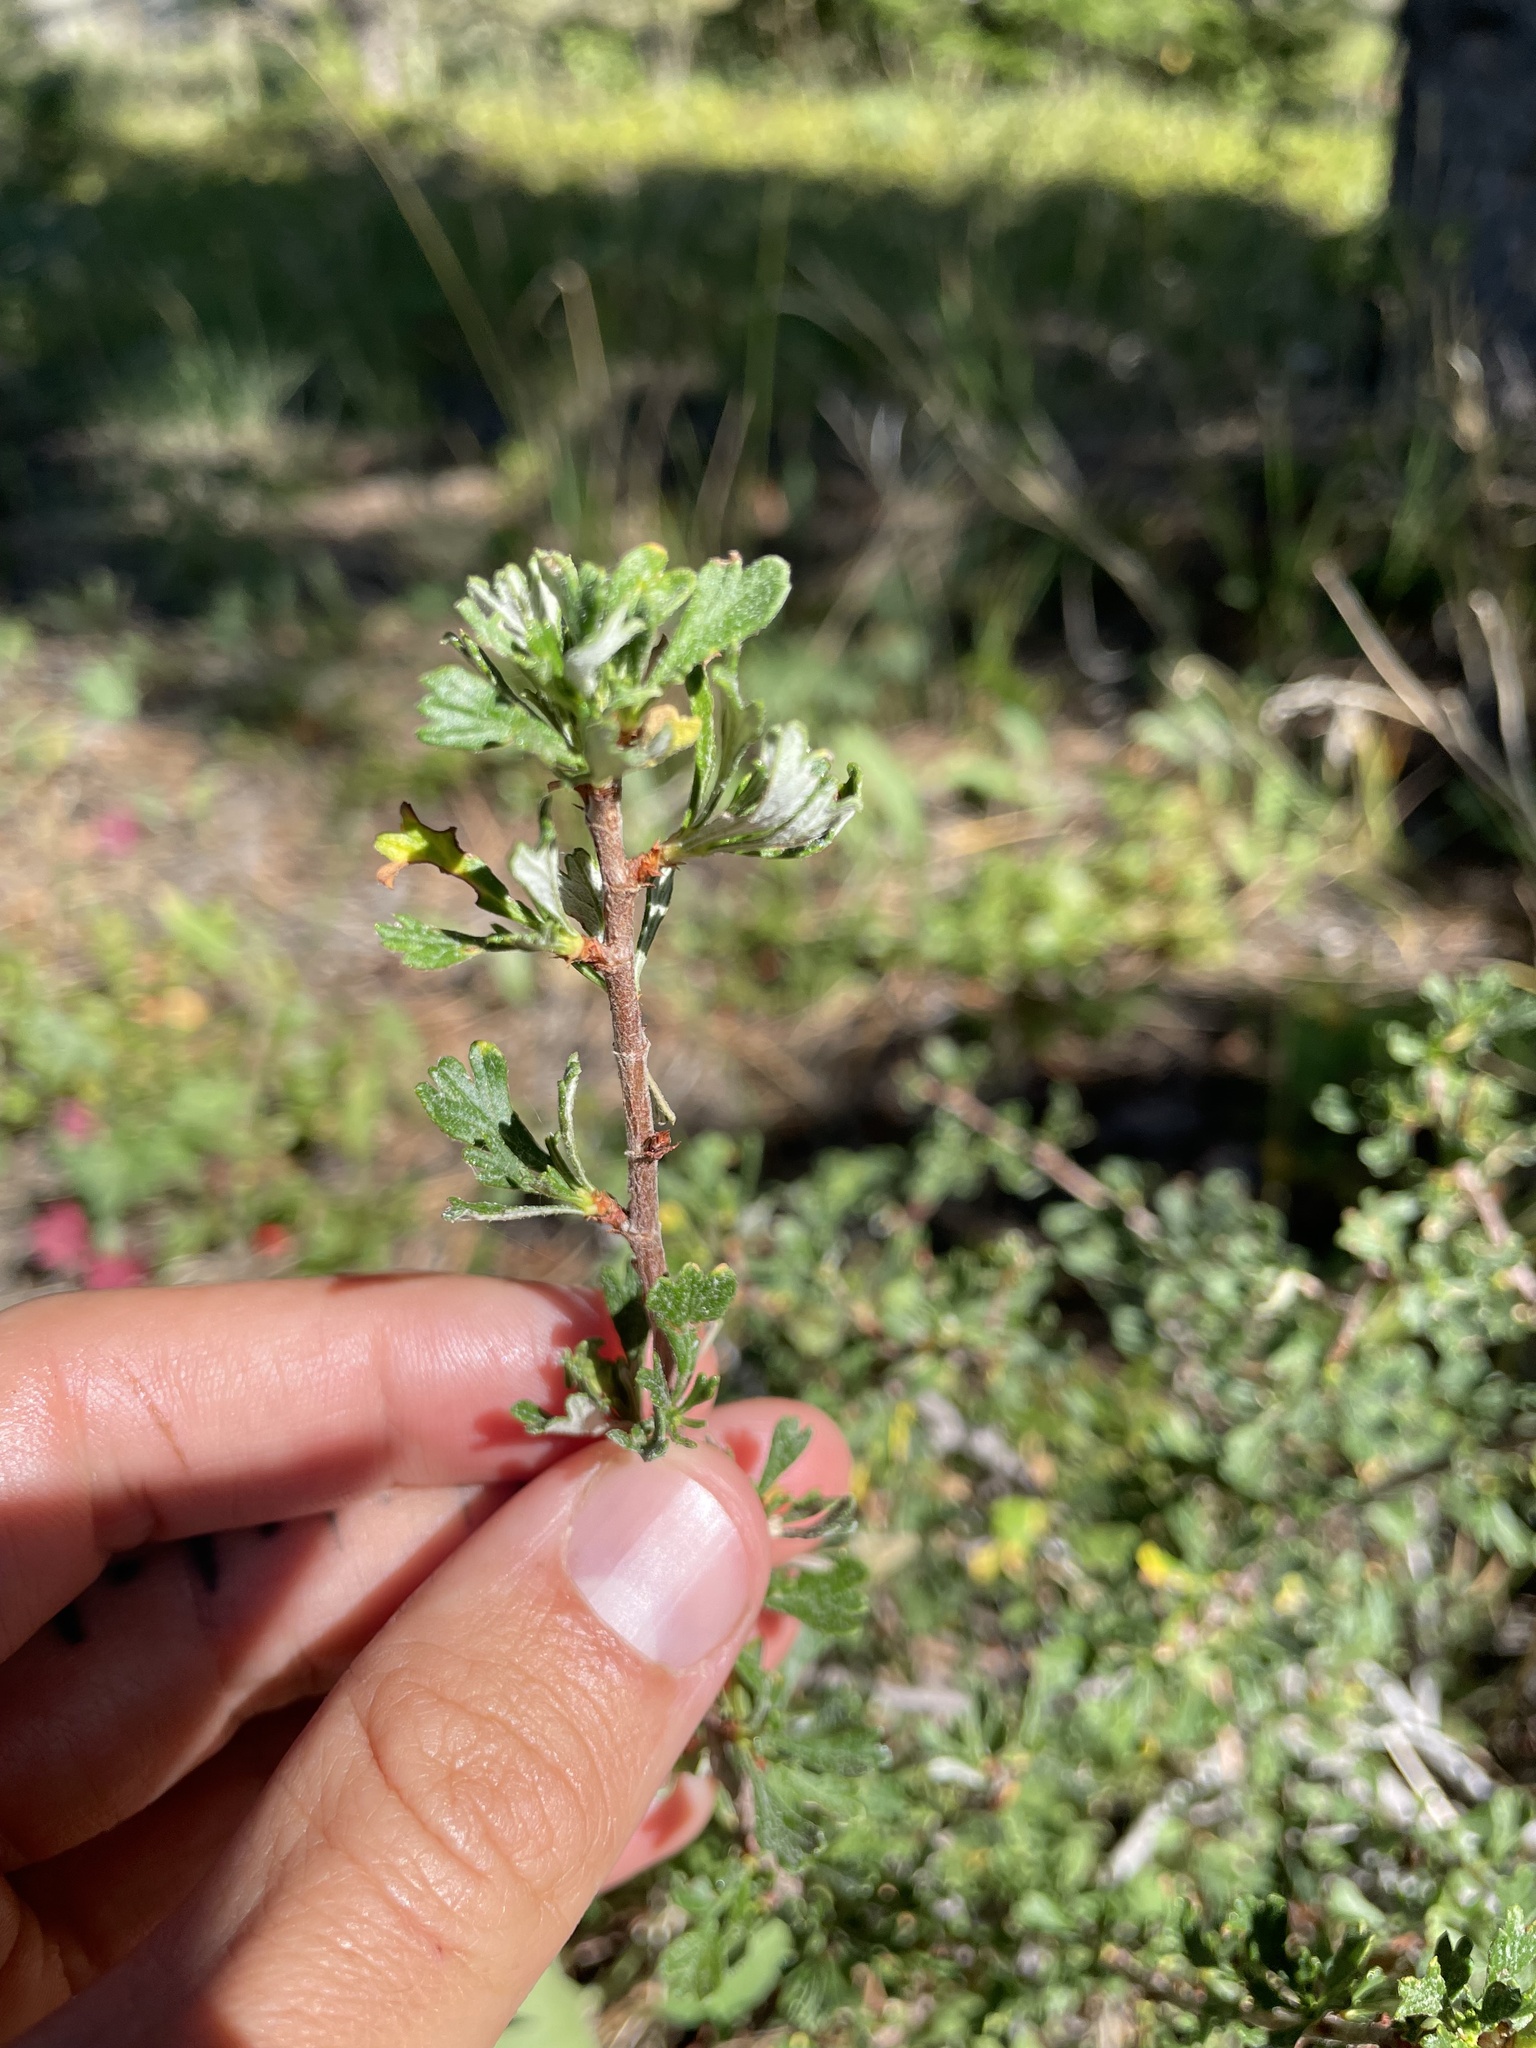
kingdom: Plantae
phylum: Tracheophyta
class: Magnoliopsida
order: Rosales
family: Rosaceae
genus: Purshia
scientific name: Purshia tridentata
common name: Antelope bitterbrush
